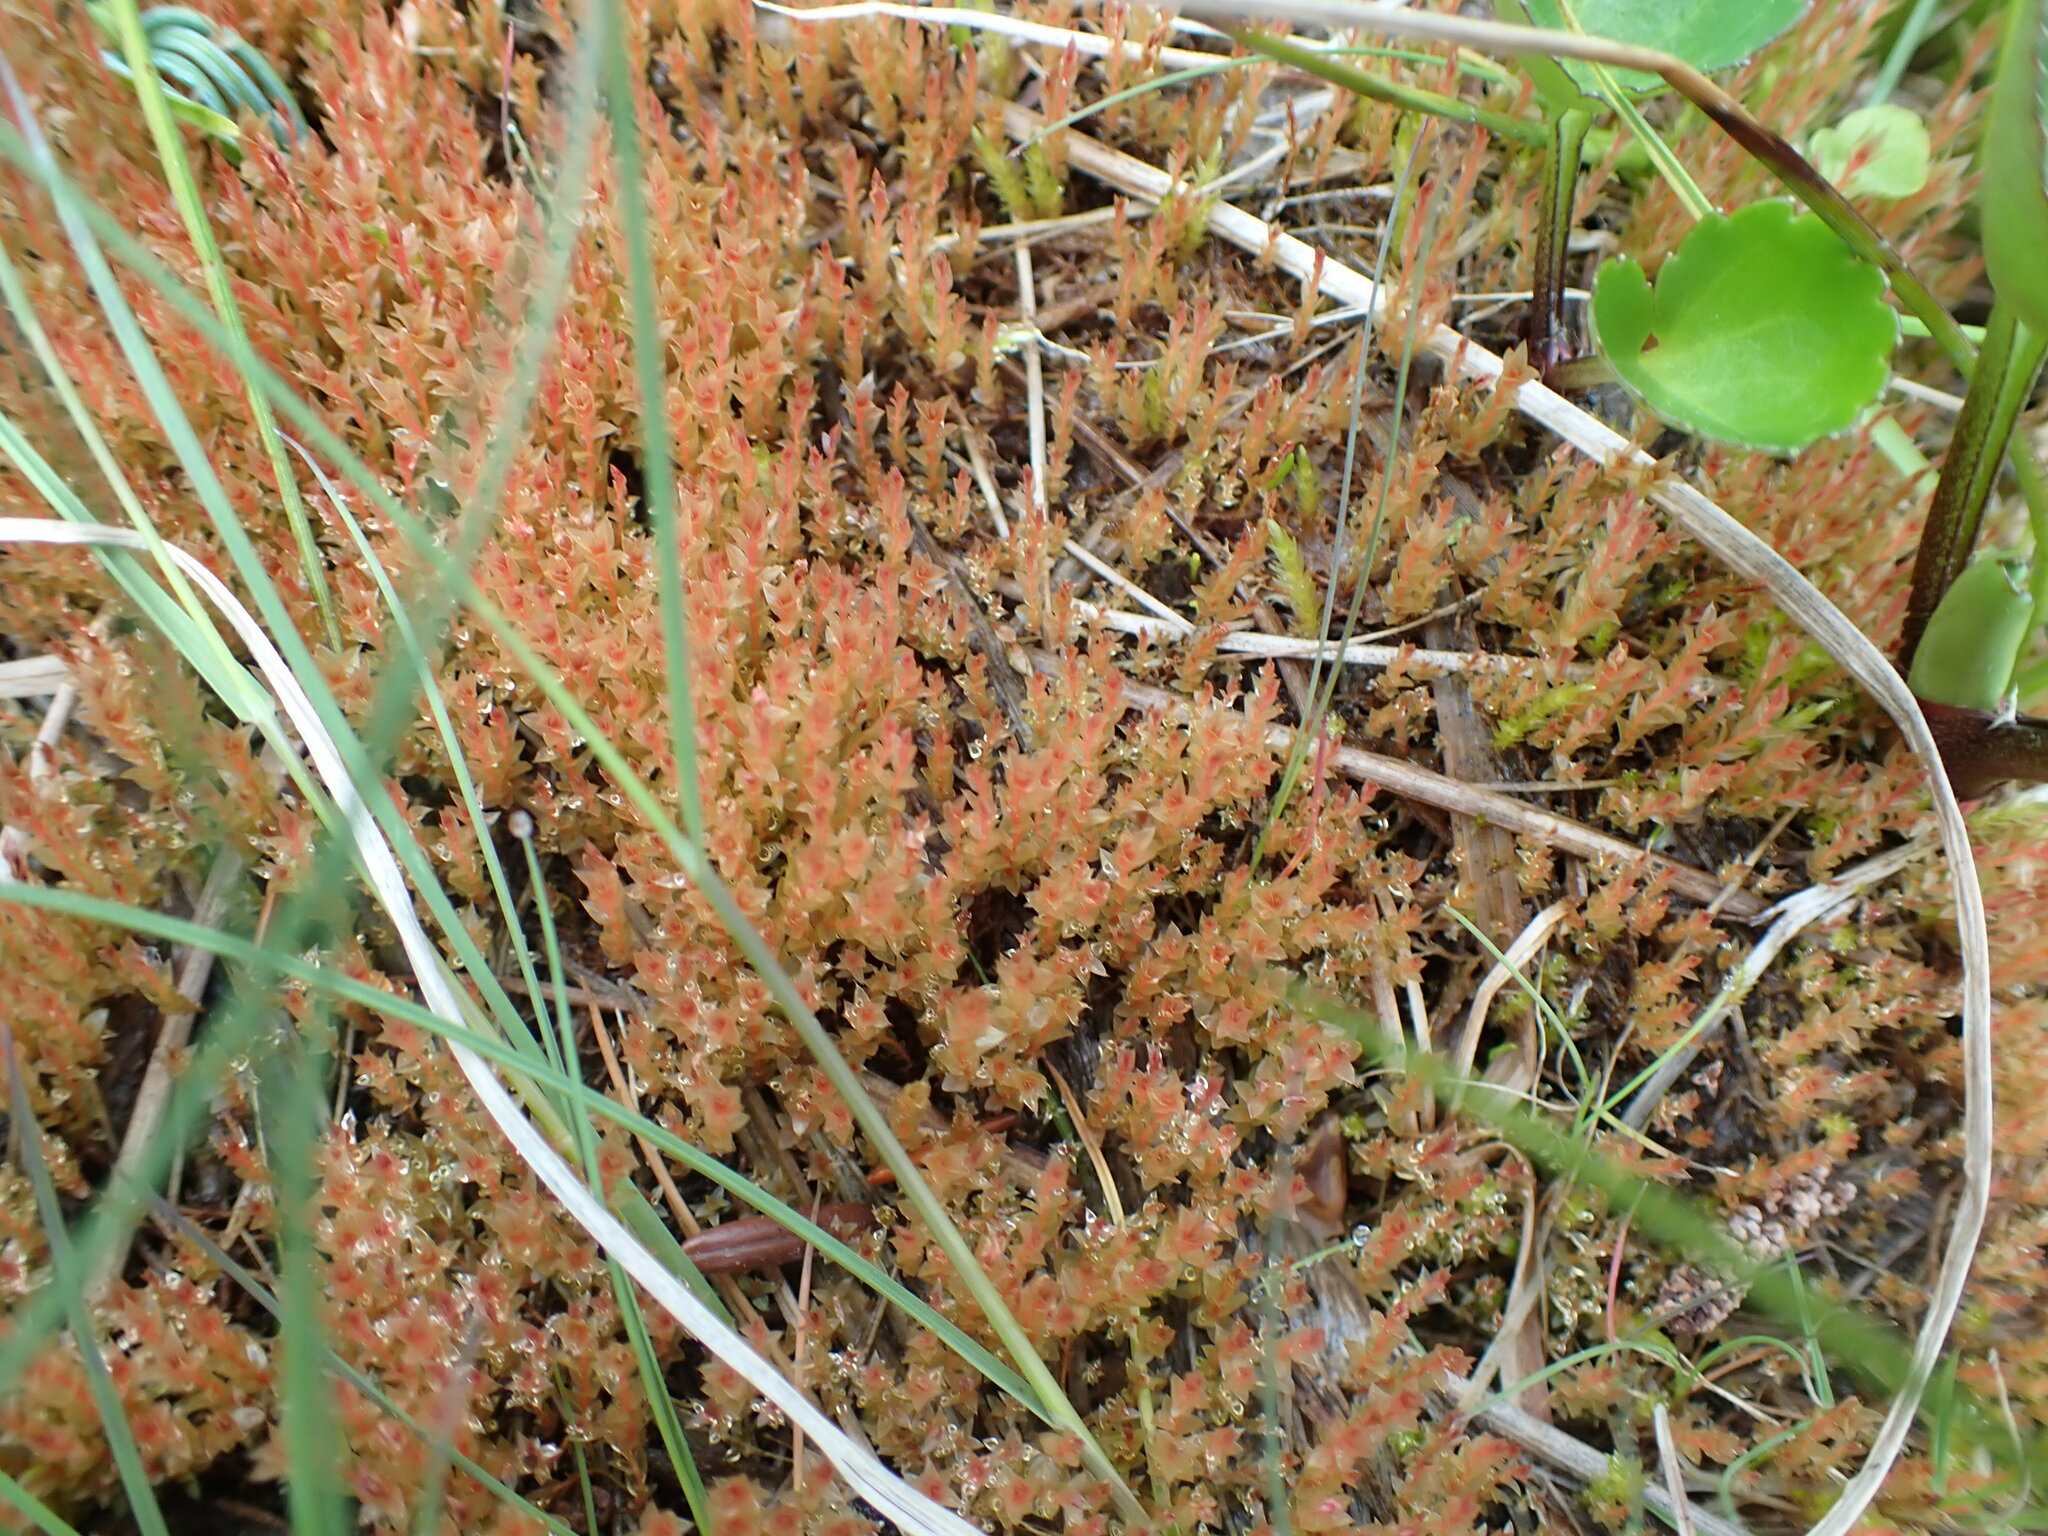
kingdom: Plantae
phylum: Bryophyta
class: Bryopsida
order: Bryales
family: Bryaceae
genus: Ptychostomum
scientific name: Ptychostomum weigelii
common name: Weigel's bryum moss
